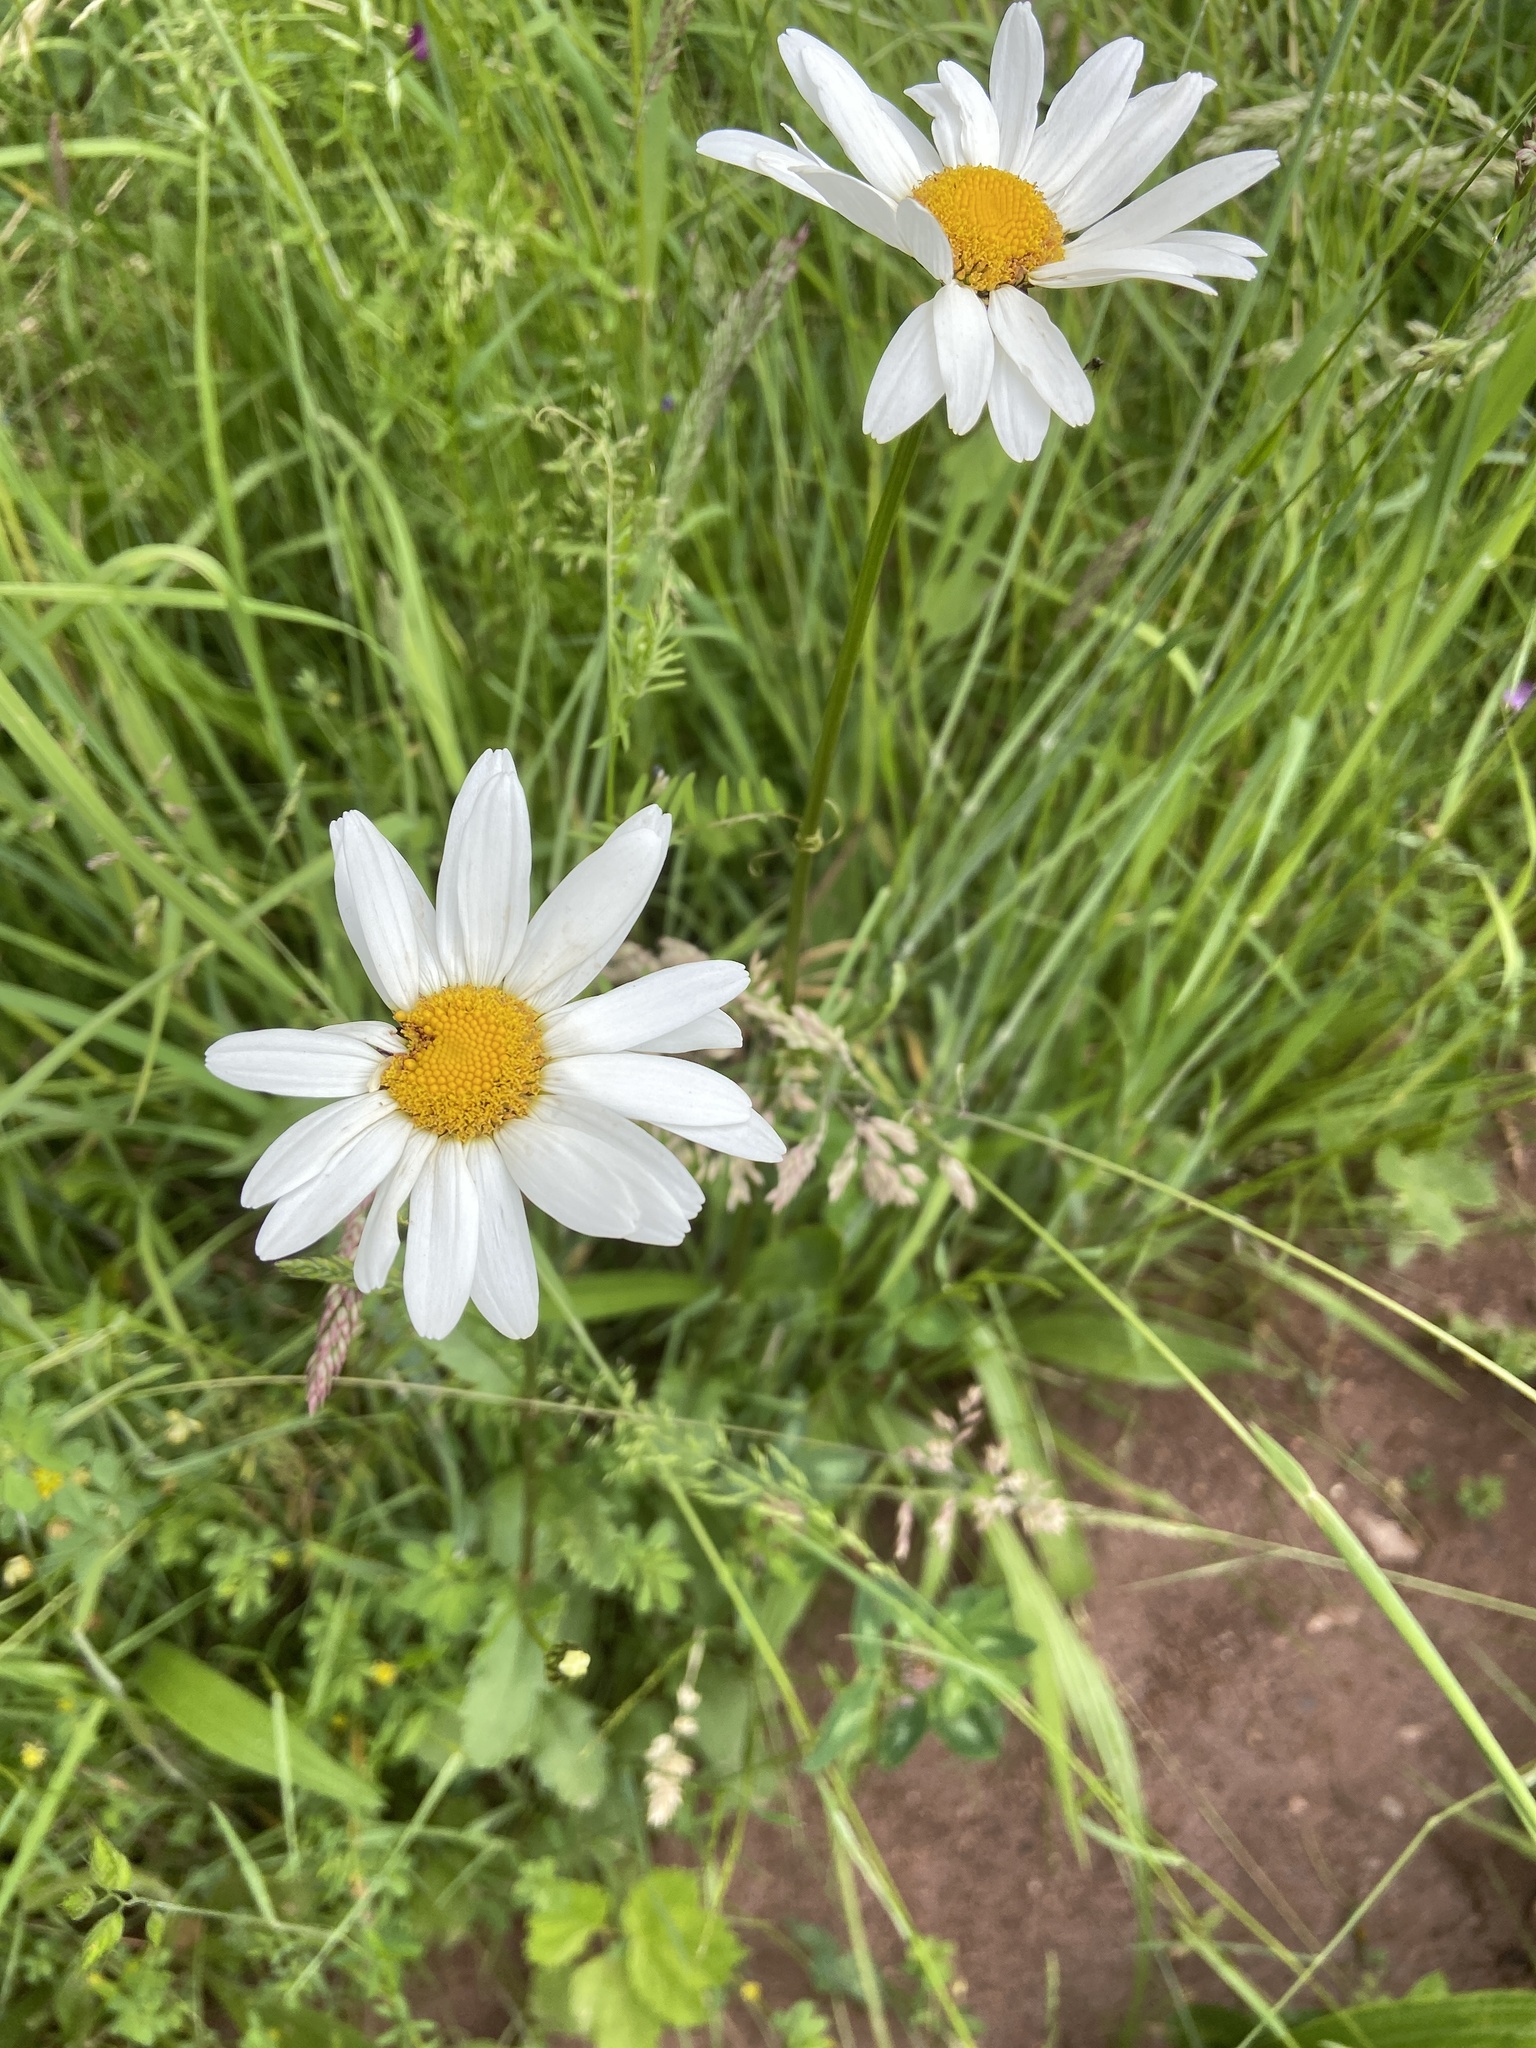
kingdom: Plantae
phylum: Tracheophyta
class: Magnoliopsida
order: Asterales
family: Asteraceae
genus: Leucanthemum
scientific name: Leucanthemum vulgare
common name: Oxeye daisy
